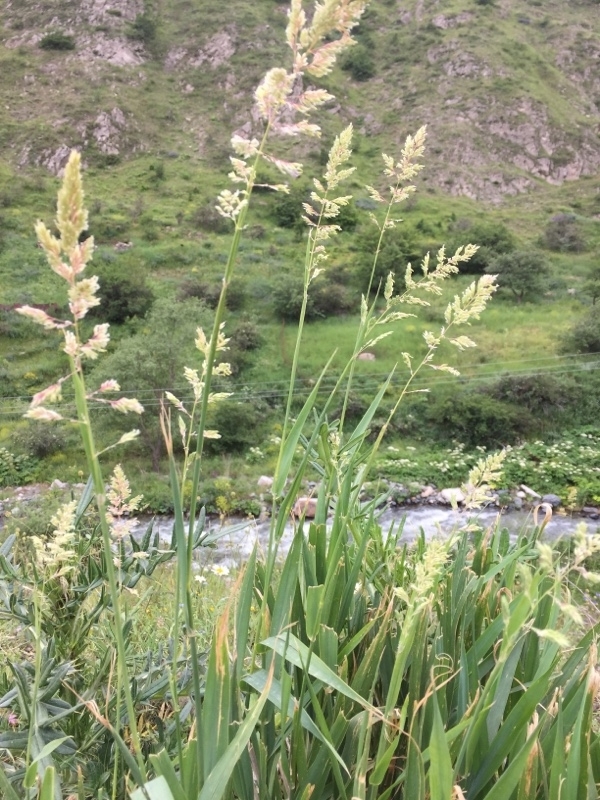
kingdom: Plantae
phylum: Tracheophyta
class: Liliopsida
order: Poales
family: Poaceae
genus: Phalaris
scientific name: Phalaris arundinacea
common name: Reed canary-grass
